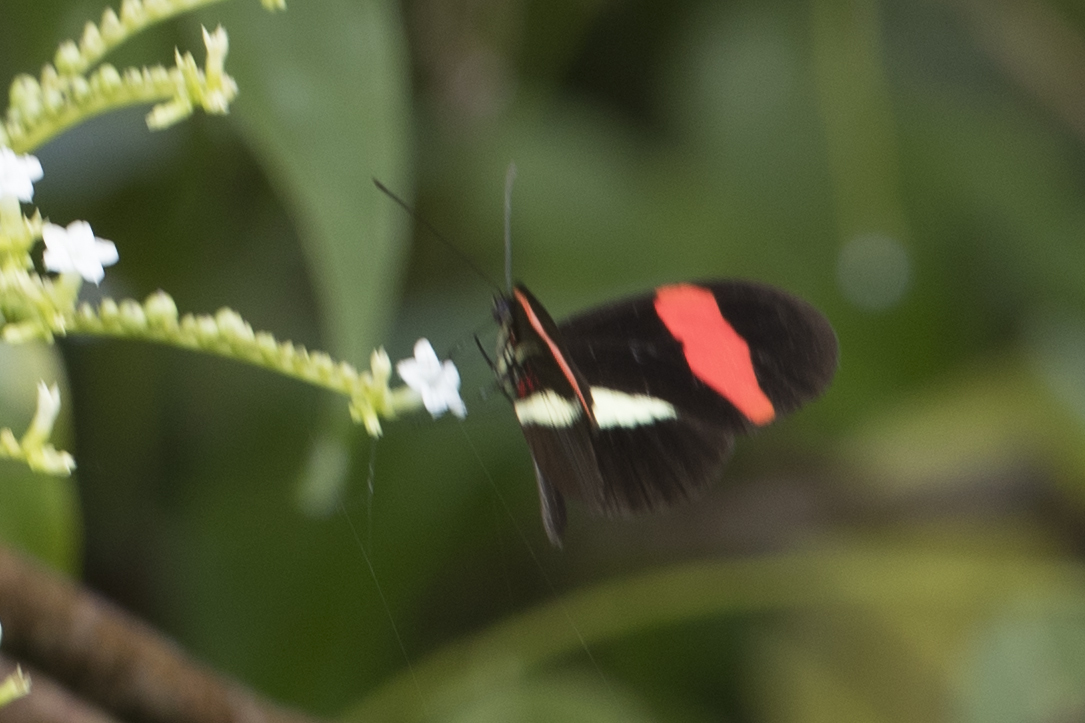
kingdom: Animalia
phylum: Arthropoda
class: Insecta
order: Lepidoptera
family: Nymphalidae
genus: Tirumala
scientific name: Tirumala petiverana
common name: Blue monarch
